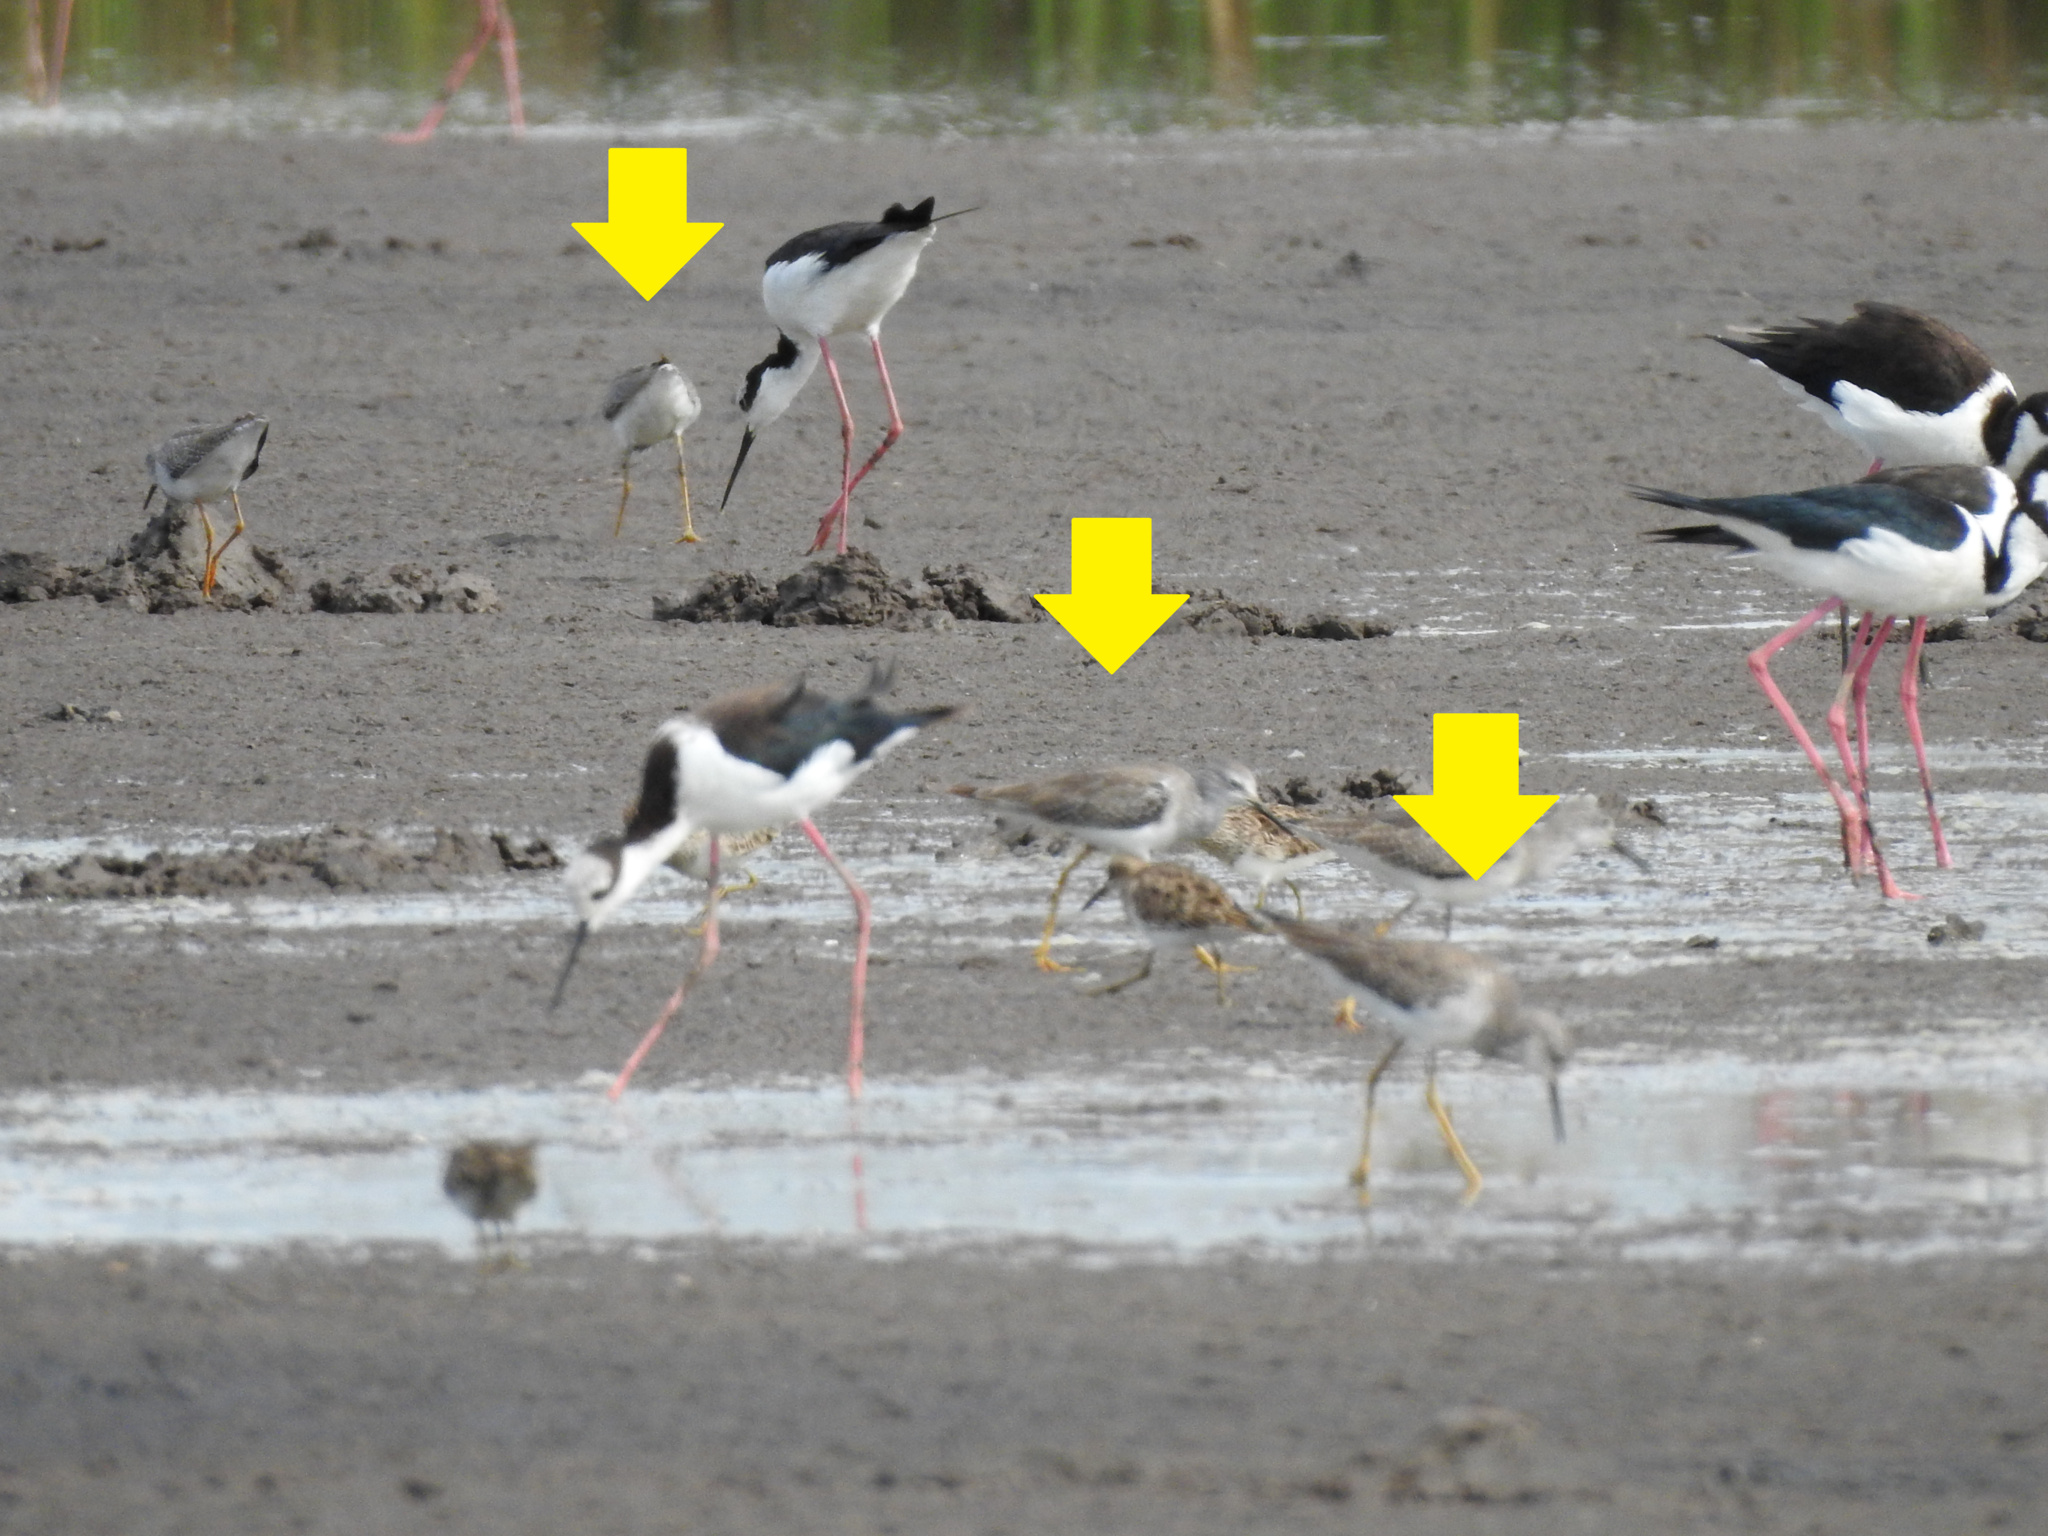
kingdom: Animalia
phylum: Chordata
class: Aves
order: Charadriiformes
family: Scolopacidae
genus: Tringa
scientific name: Tringa flavipes
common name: Lesser yellowlegs
